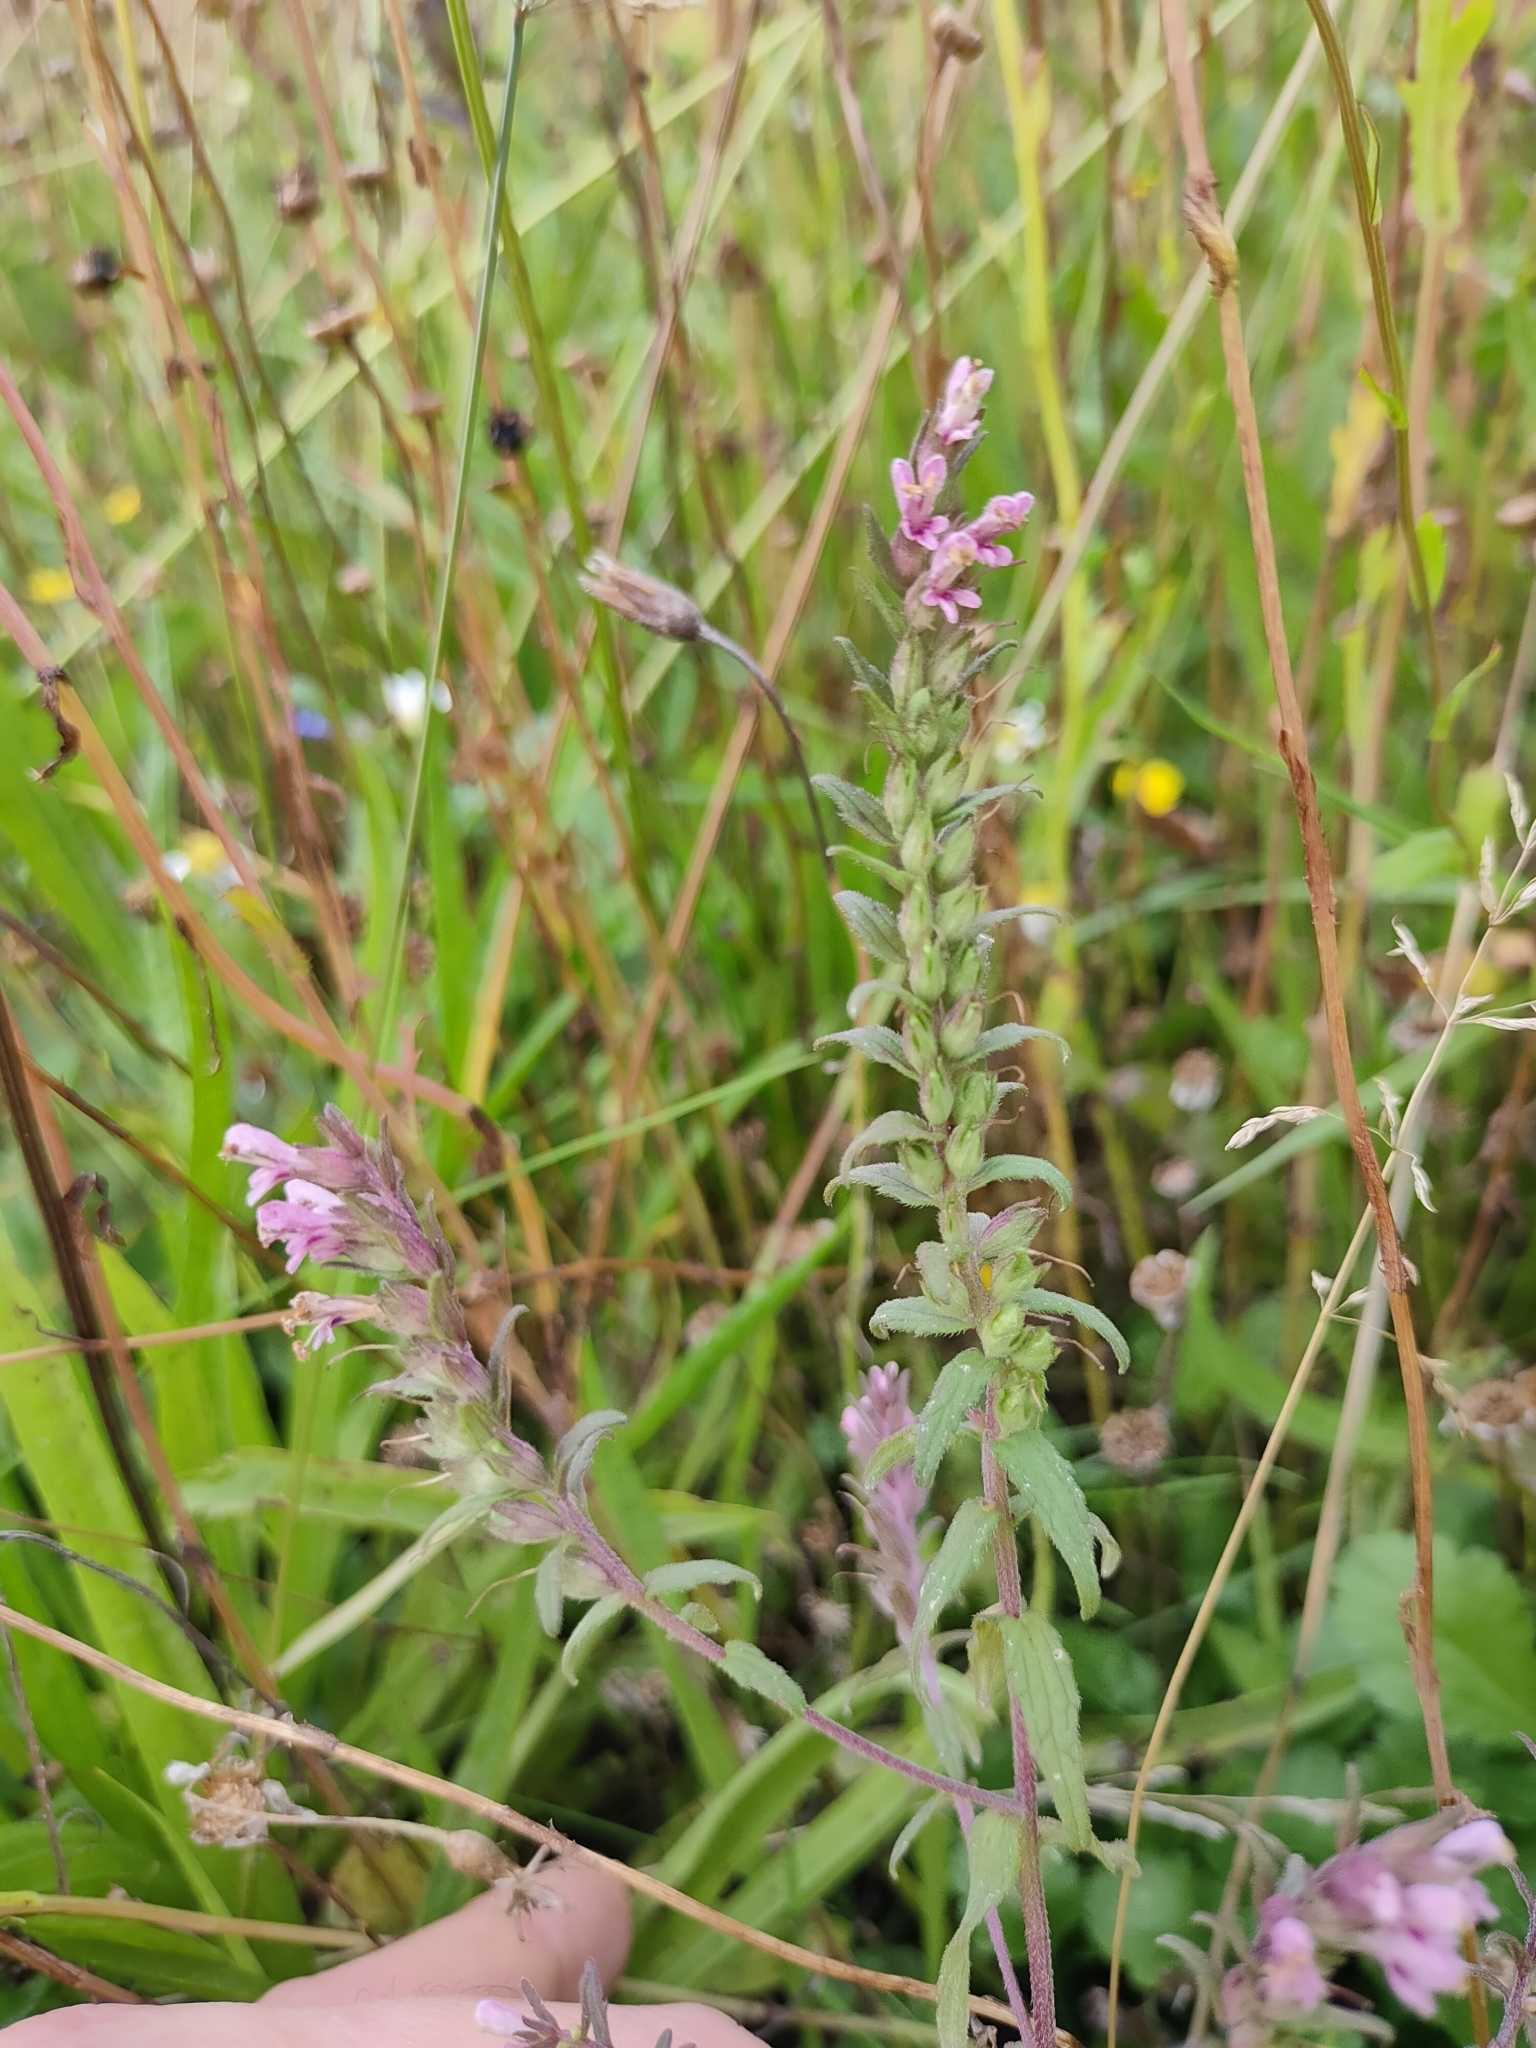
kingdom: Plantae
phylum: Tracheophyta
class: Magnoliopsida
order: Lamiales
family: Orobanchaceae
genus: Odontites
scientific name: Odontites vernus
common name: Red bartsia
